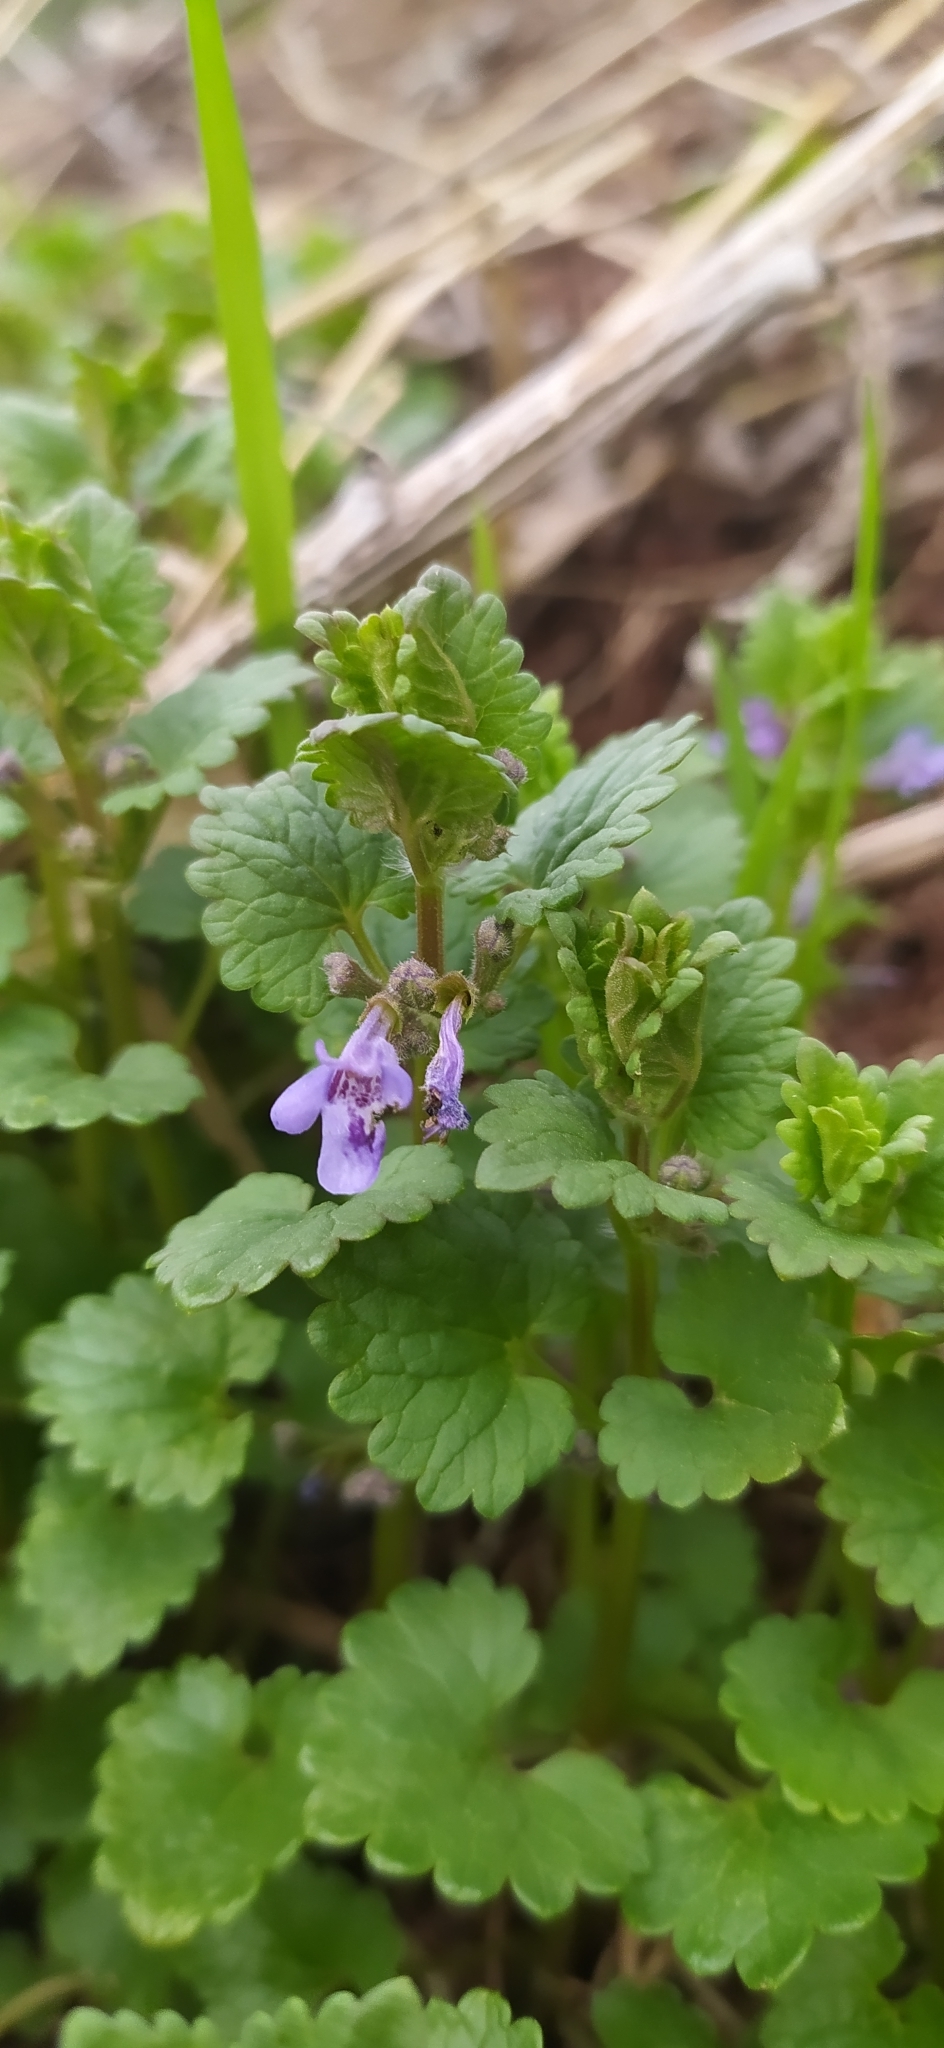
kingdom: Plantae
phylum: Tracheophyta
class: Magnoliopsida
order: Lamiales
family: Lamiaceae
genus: Glechoma
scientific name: Glechoma hederacea
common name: Ground ivy
